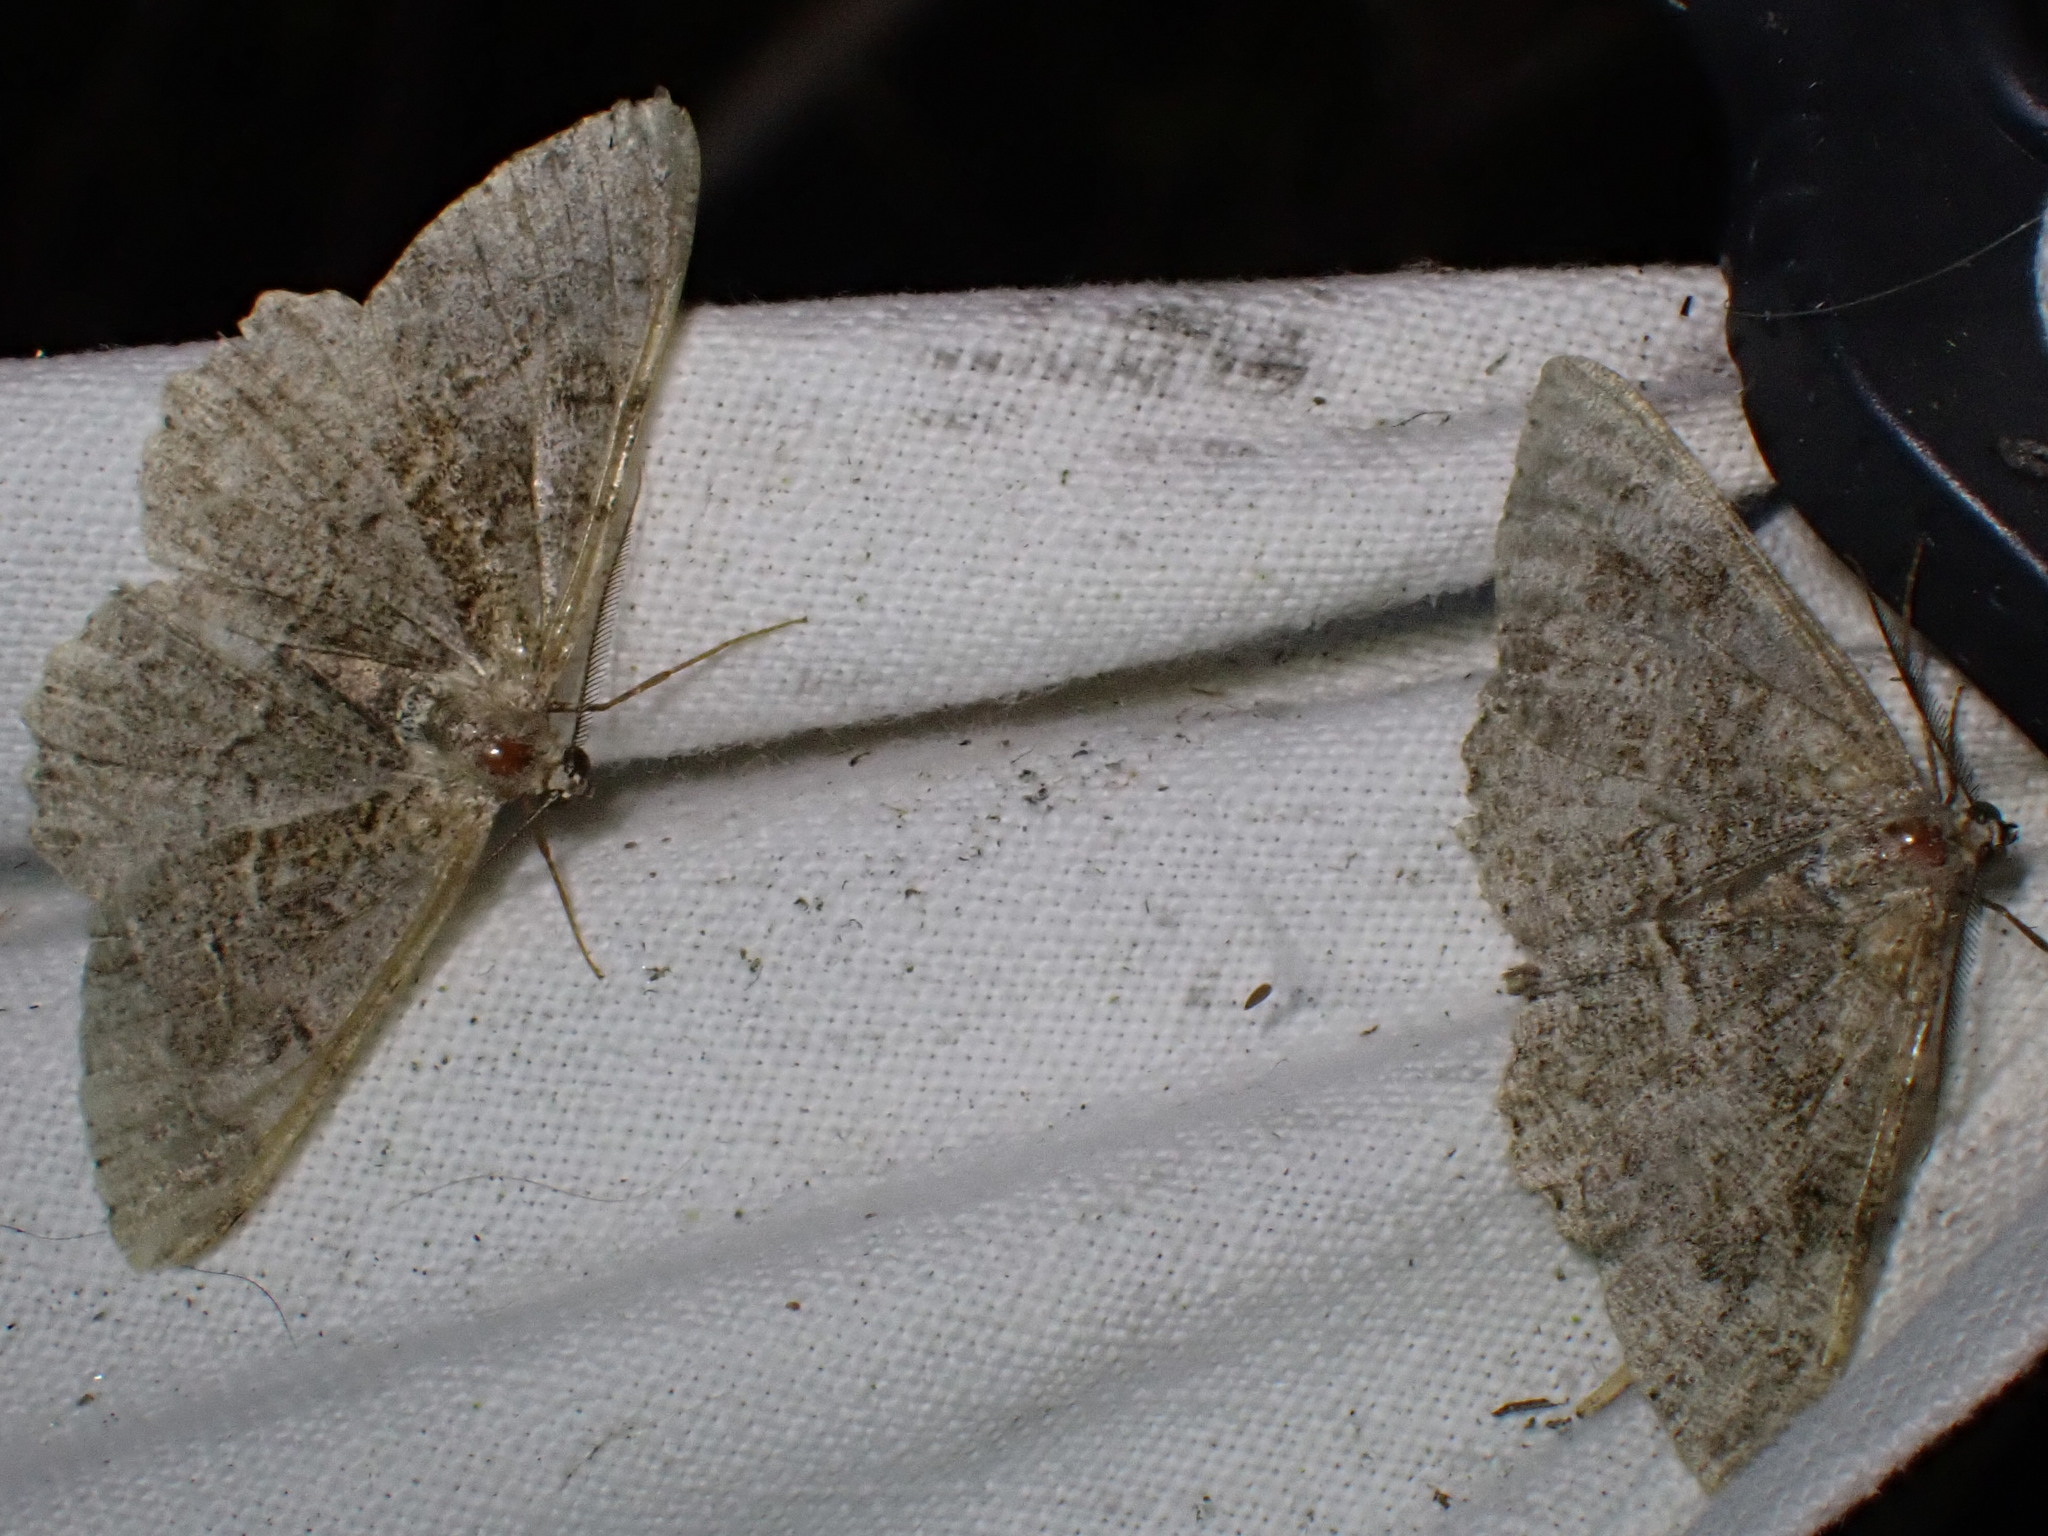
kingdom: Animalia
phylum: Arthropoda
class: Insecta
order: Lepidoptera
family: Geometridae
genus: Alcis
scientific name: Alcis repandata
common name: Mottled beauty
